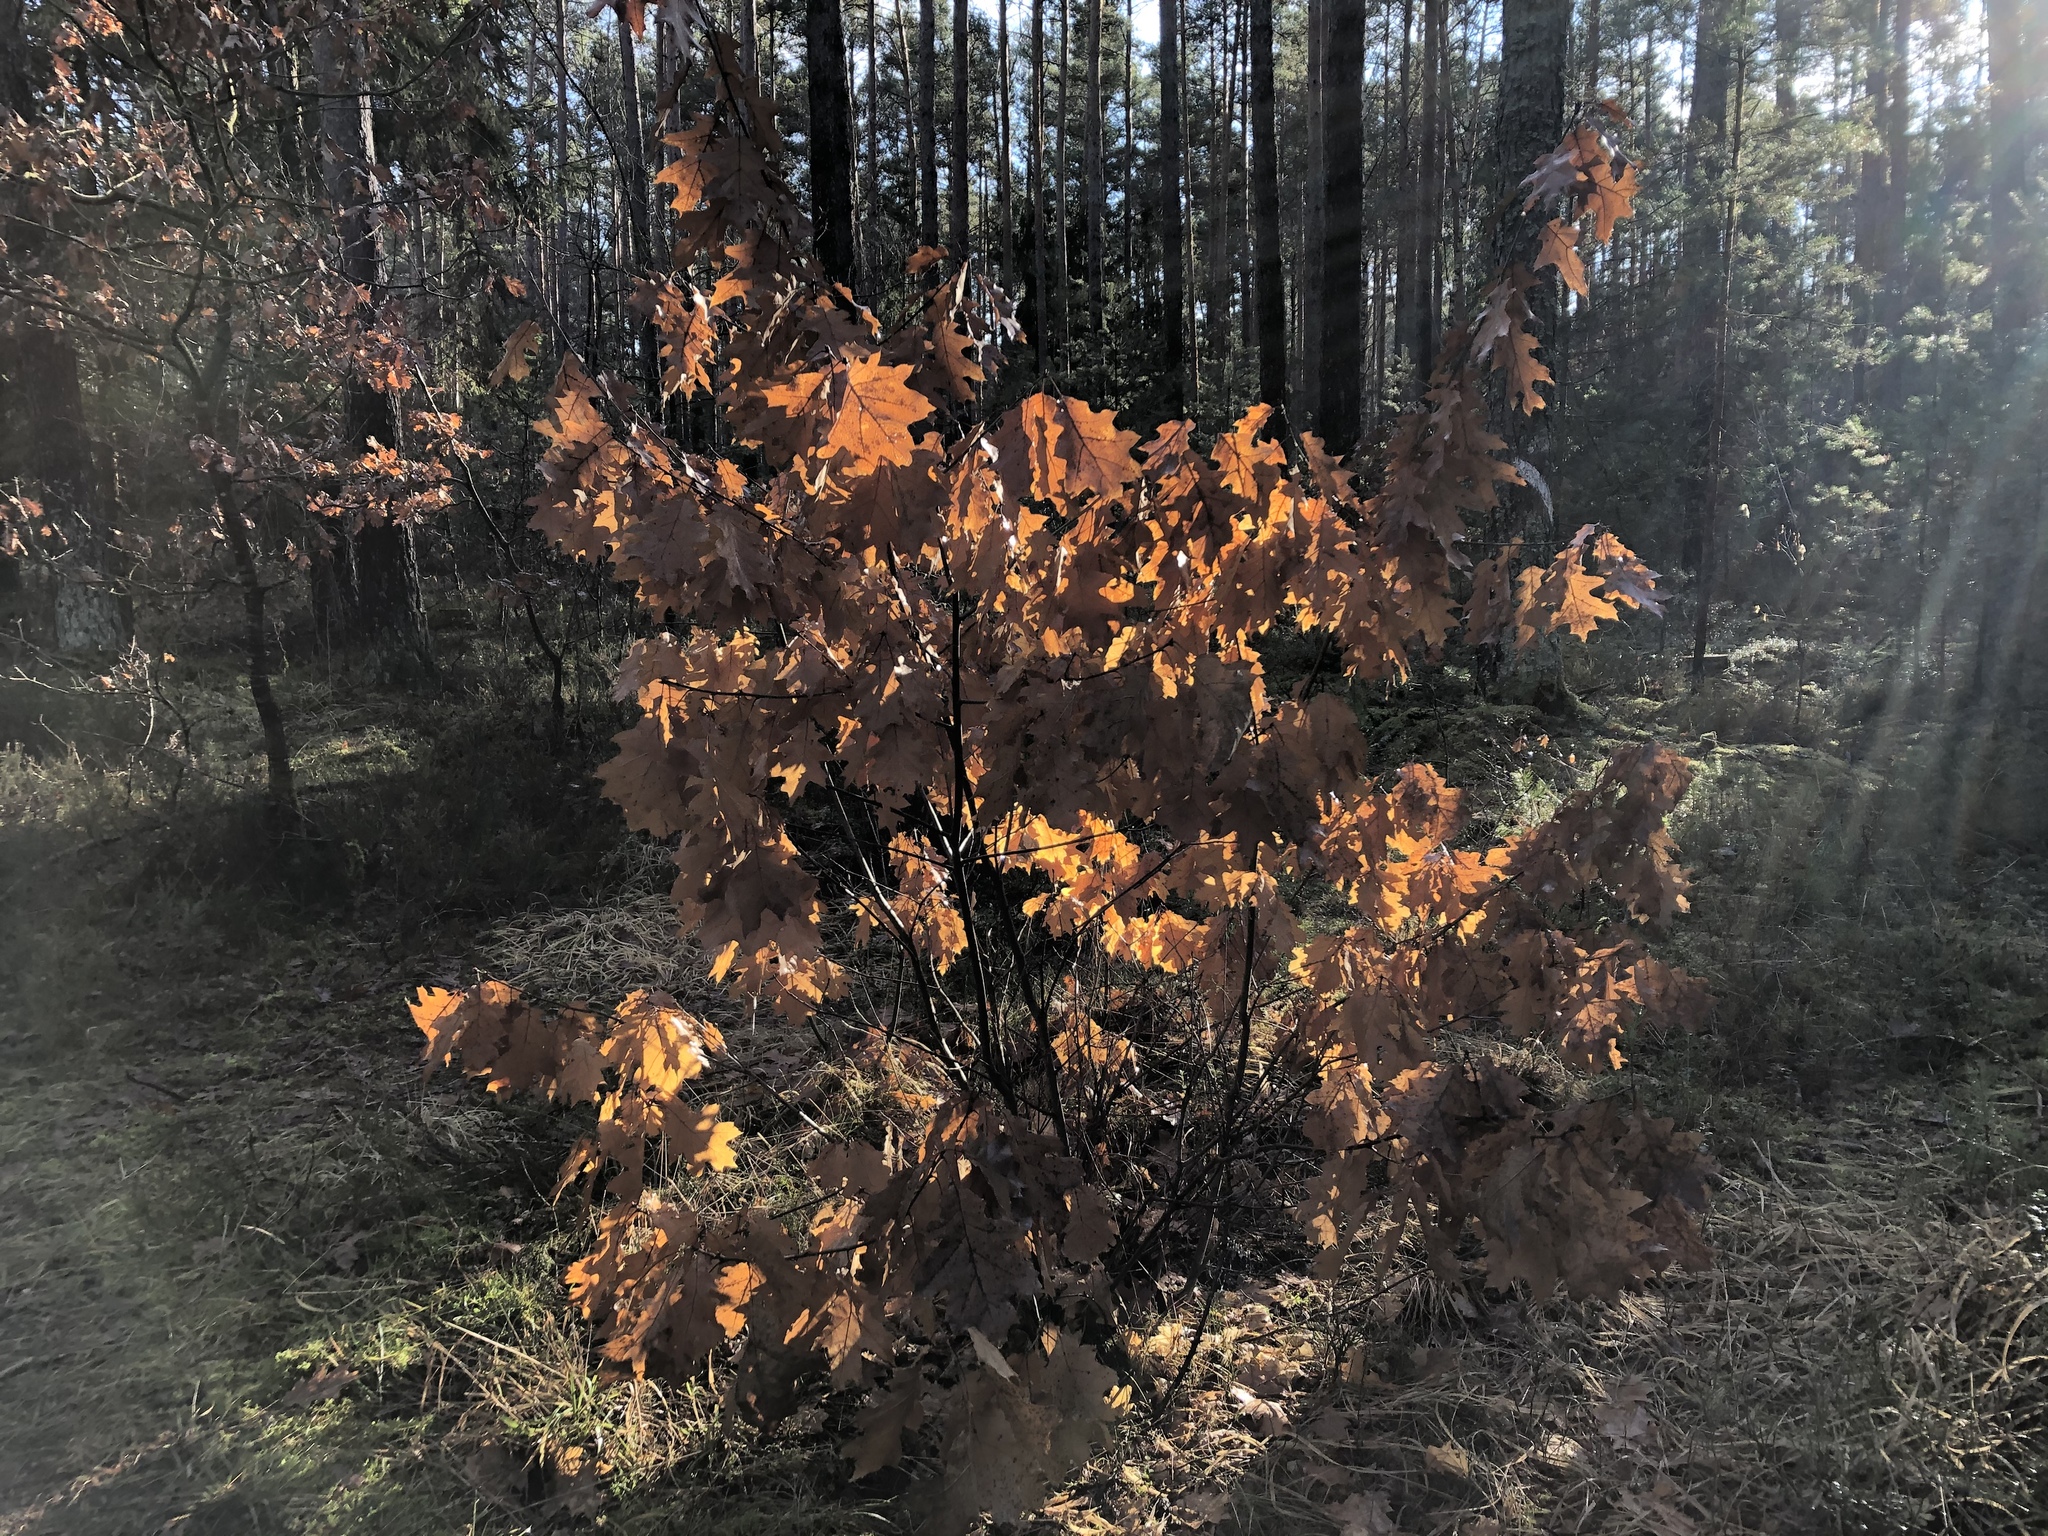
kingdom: Plantae
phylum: Tracheophyta
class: Magnoliopsida
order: Fagales
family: Fagaceae
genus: Quercus
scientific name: Quercus rubra
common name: Red oak
